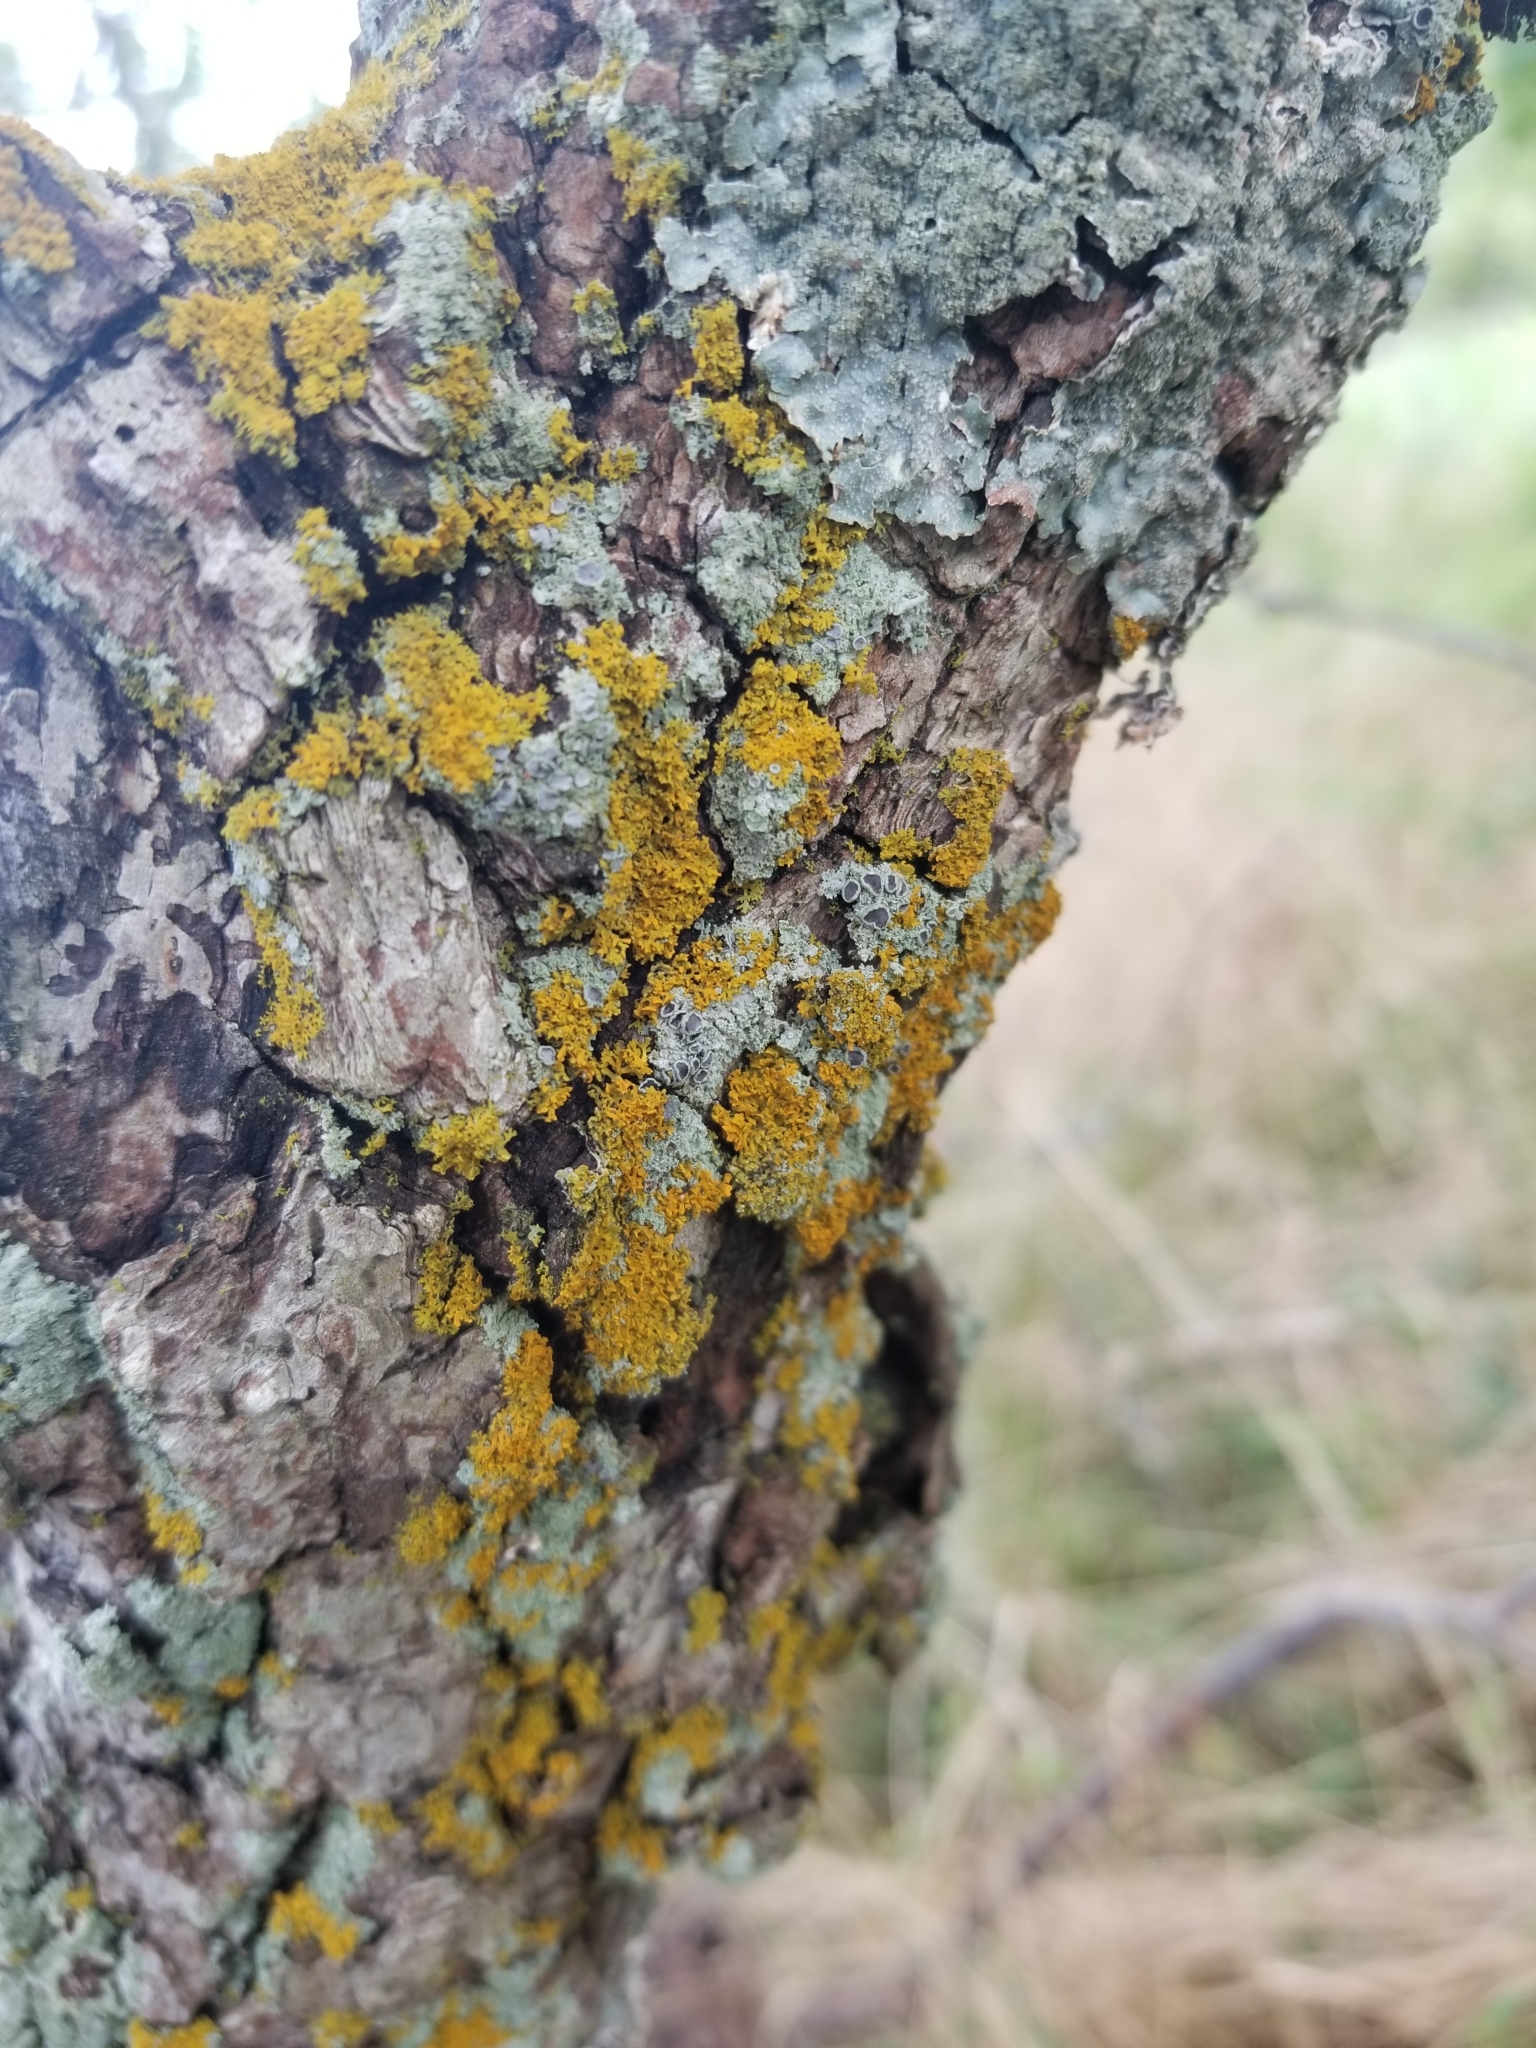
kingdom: Fungi
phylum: Ascomycota
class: Candelariomycetes
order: Candelariales
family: Candelariaceae
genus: Candelaria
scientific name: Candelaria concolor
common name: Candleflame lichen
